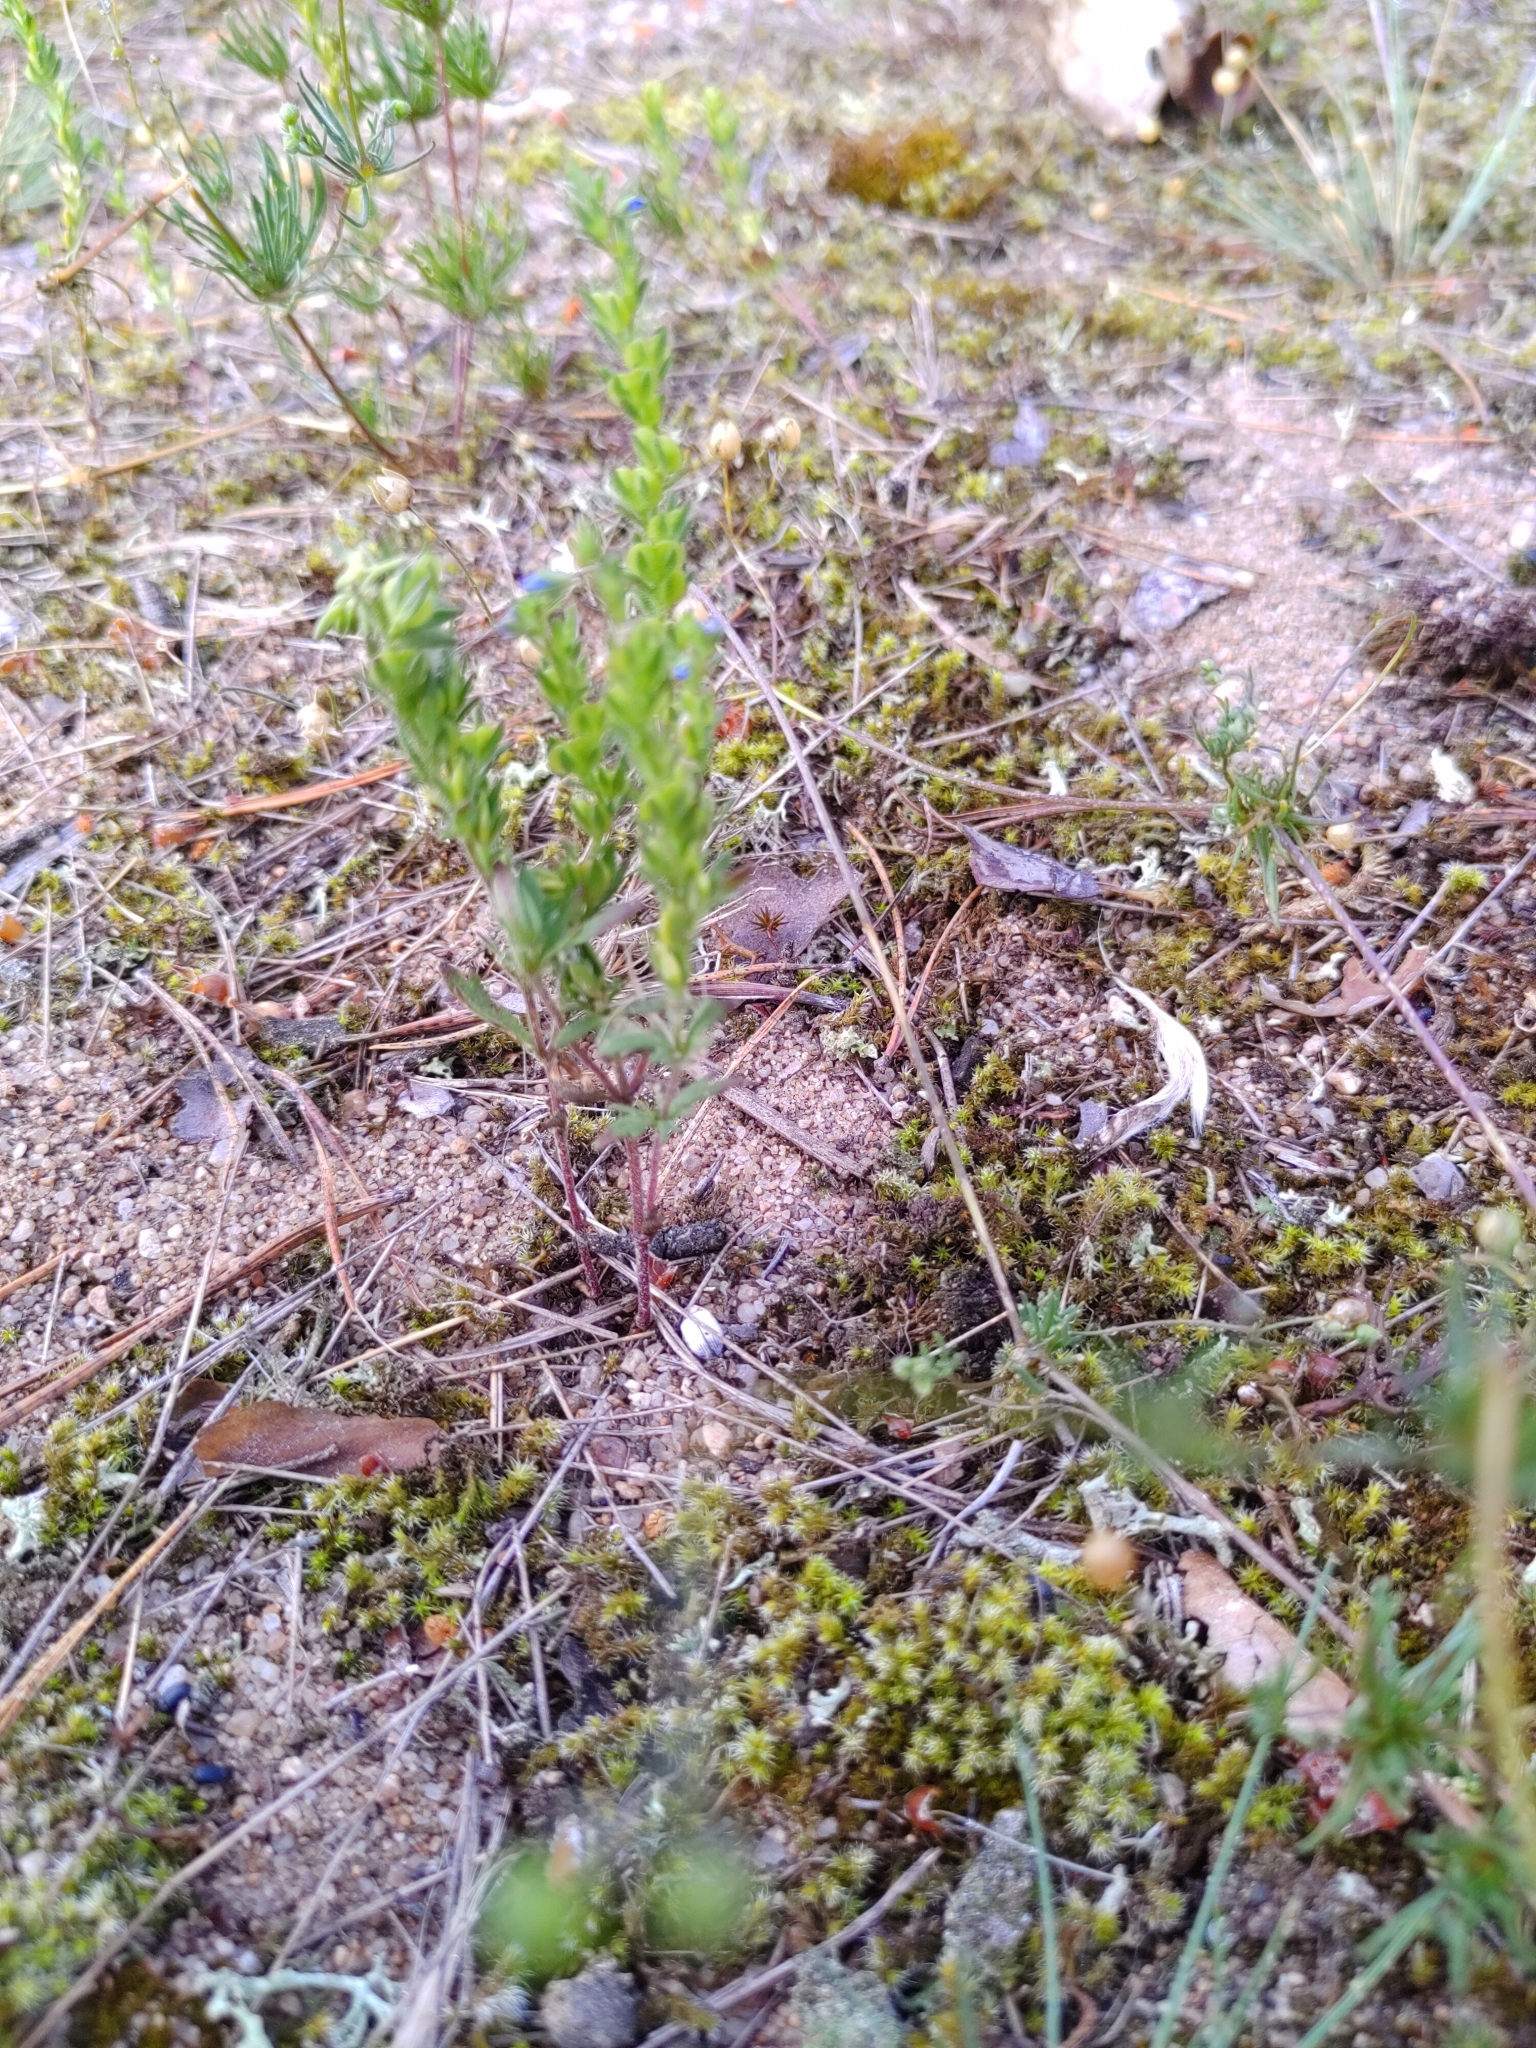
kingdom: Plantae
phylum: Tracheophyta
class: Magnoliopsida
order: Lamiales
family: Plantaginaceae
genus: Veronica
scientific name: Veronica dillenii
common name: Dillenius' speedwell
